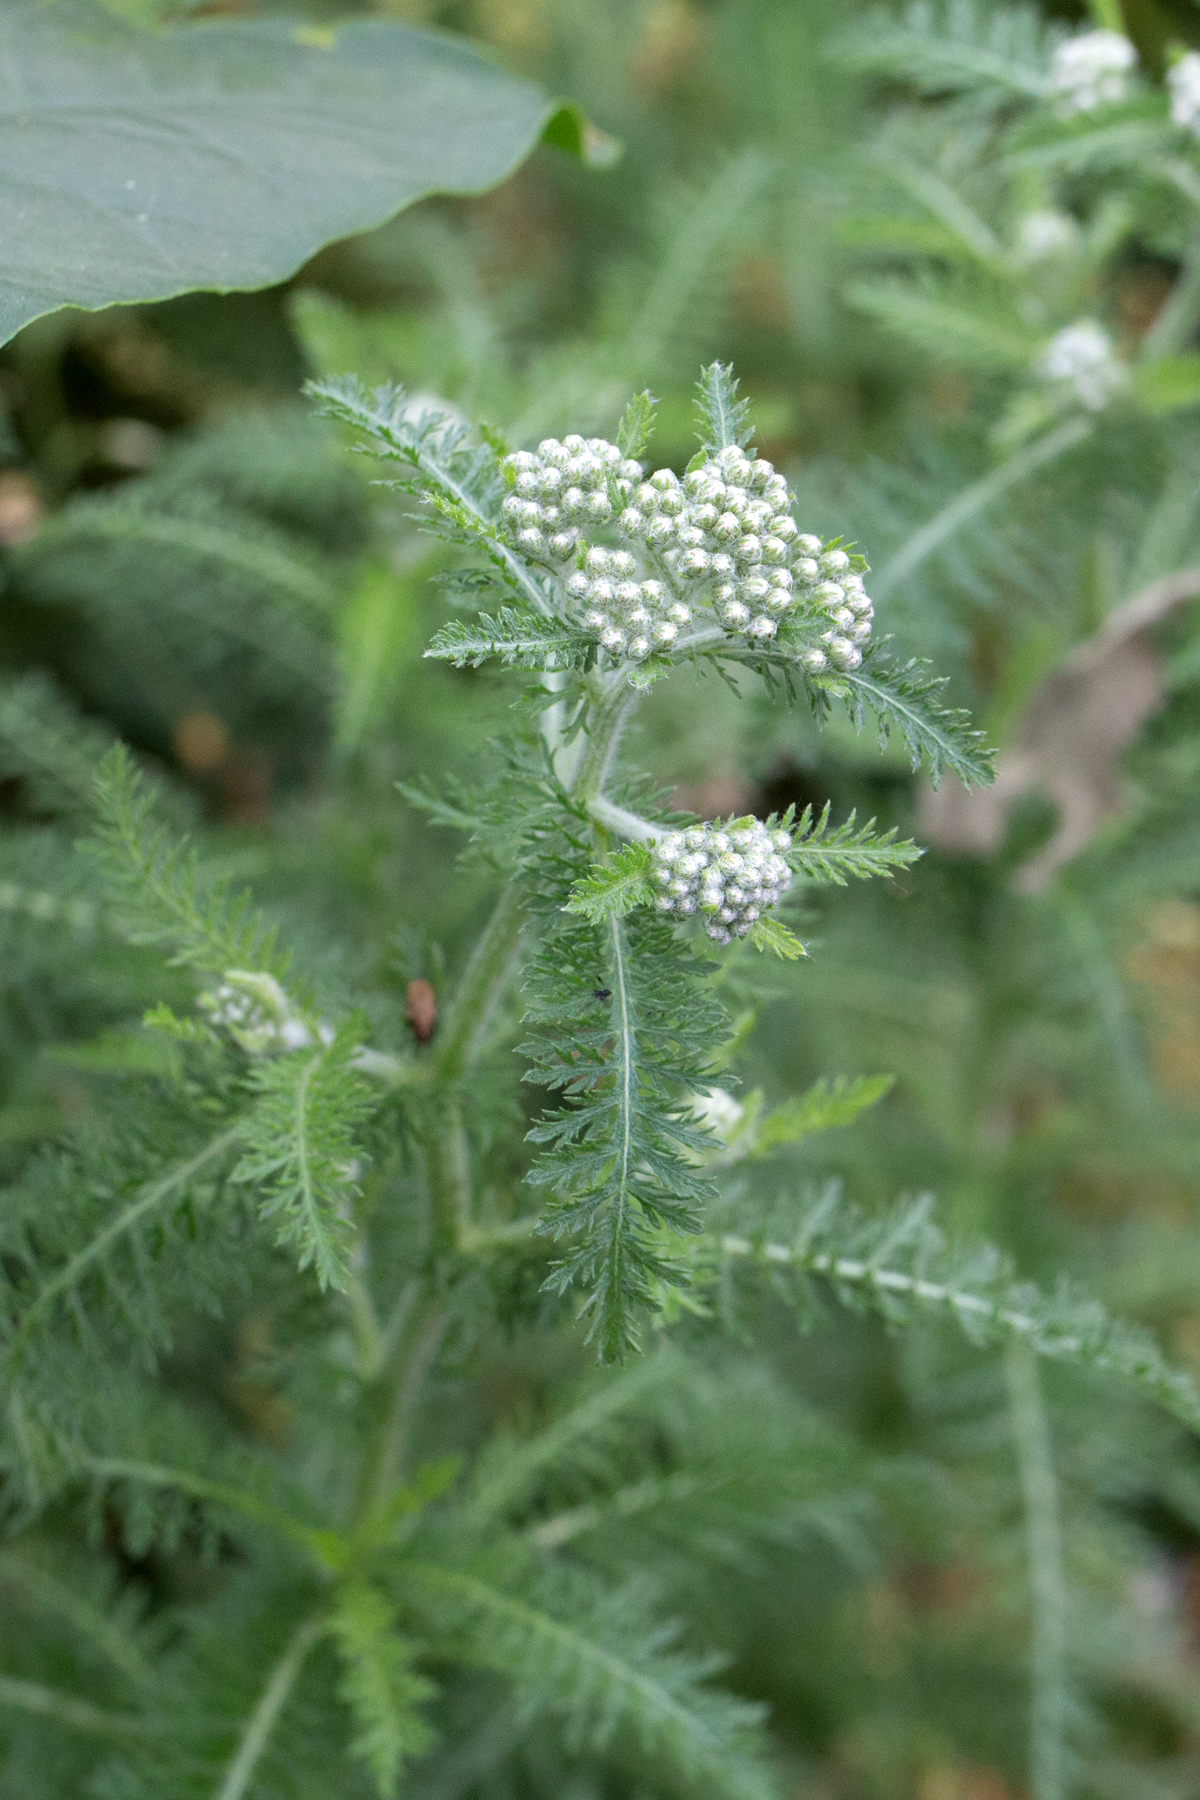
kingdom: Plantae
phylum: Tracheophyta
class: Magnoliopsida
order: Asterales
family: Asteraceae
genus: Achillea
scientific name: Achillea millefolium
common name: Yarrow
